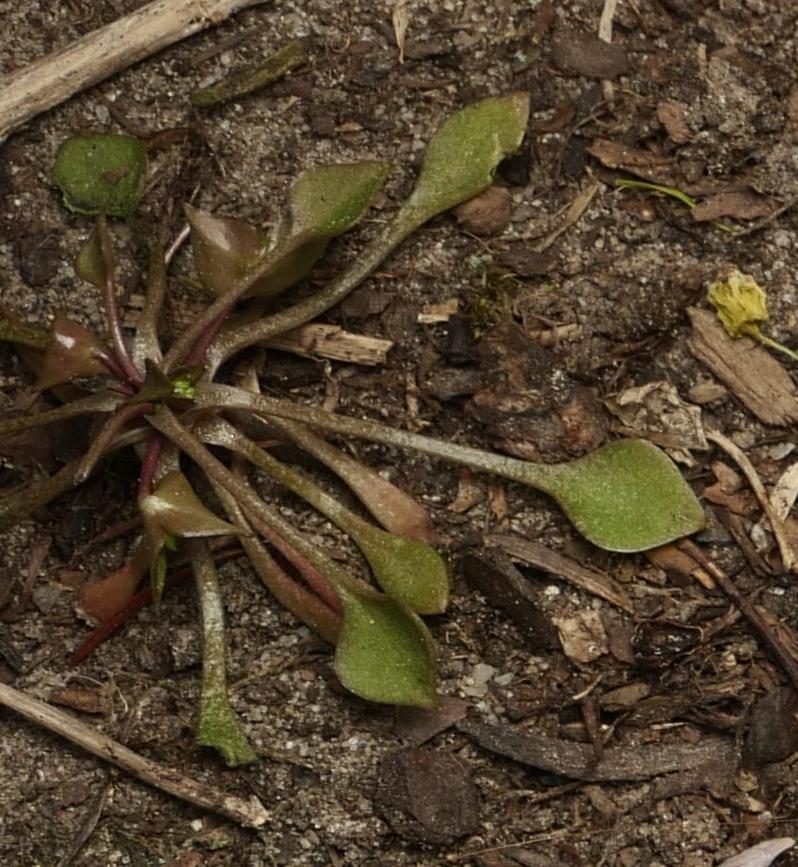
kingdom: Plantae
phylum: Tracheophyta
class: Magnoliopsida
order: Caryophyllales
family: Montiaceae
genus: Claytonia
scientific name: Claytonia perfoliata
